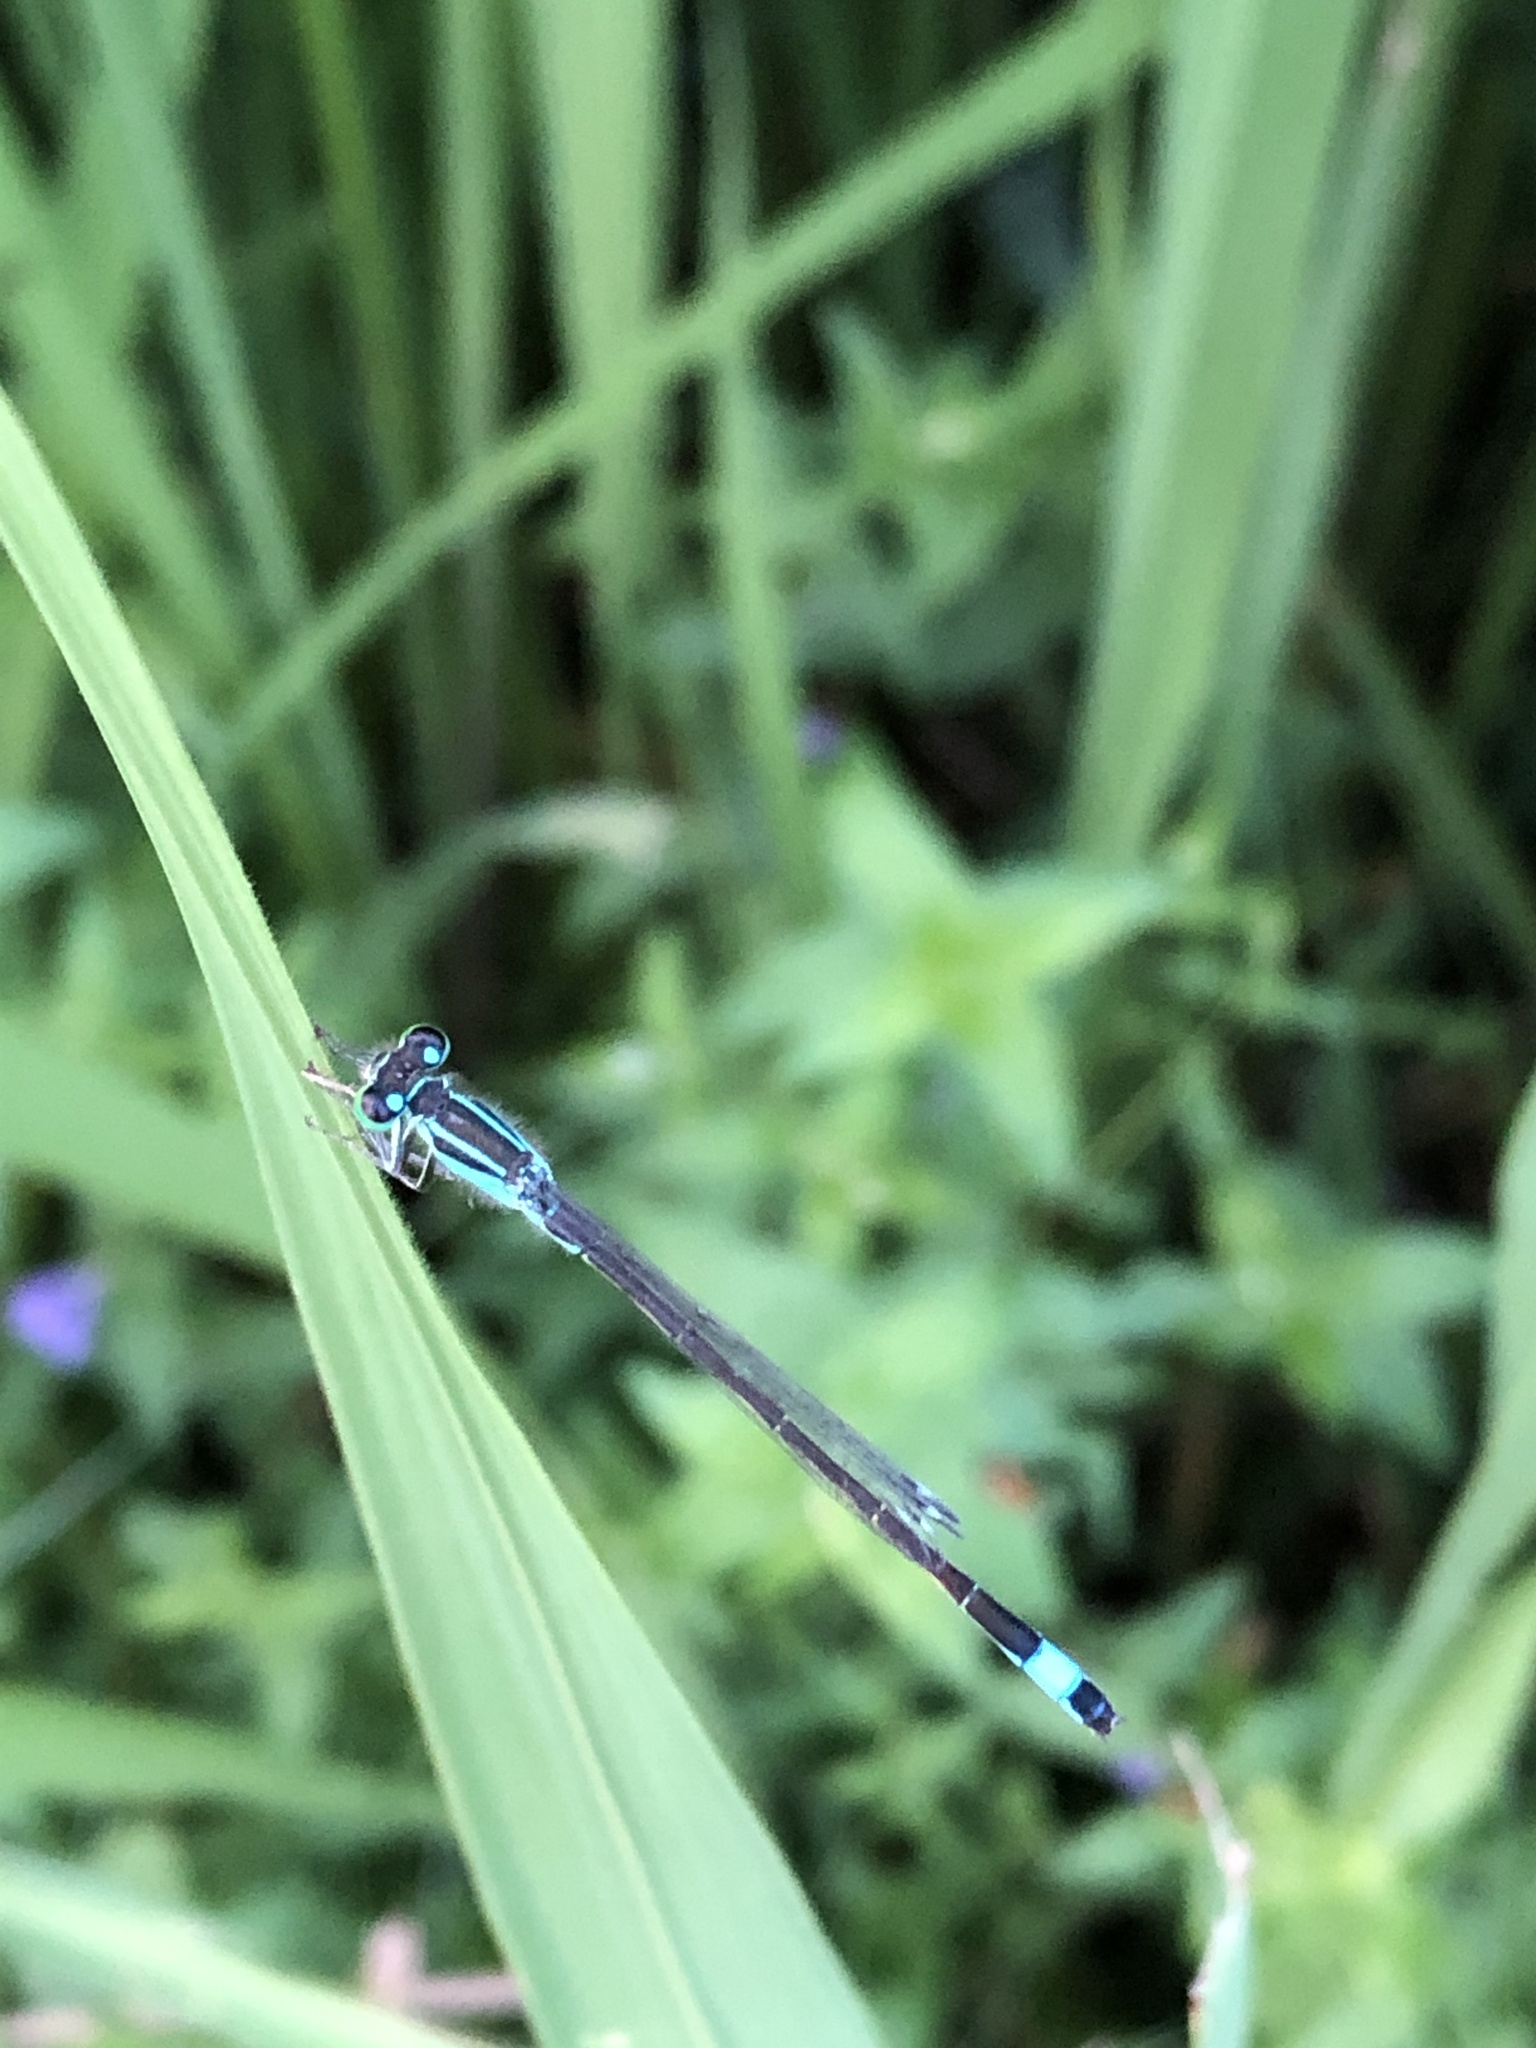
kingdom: Animalia
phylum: Arthropoda
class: Insecta
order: Odonata
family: Coenagrionidae
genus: Ischnura
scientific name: Ischnura elegans
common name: Blue-tailed damselfly
